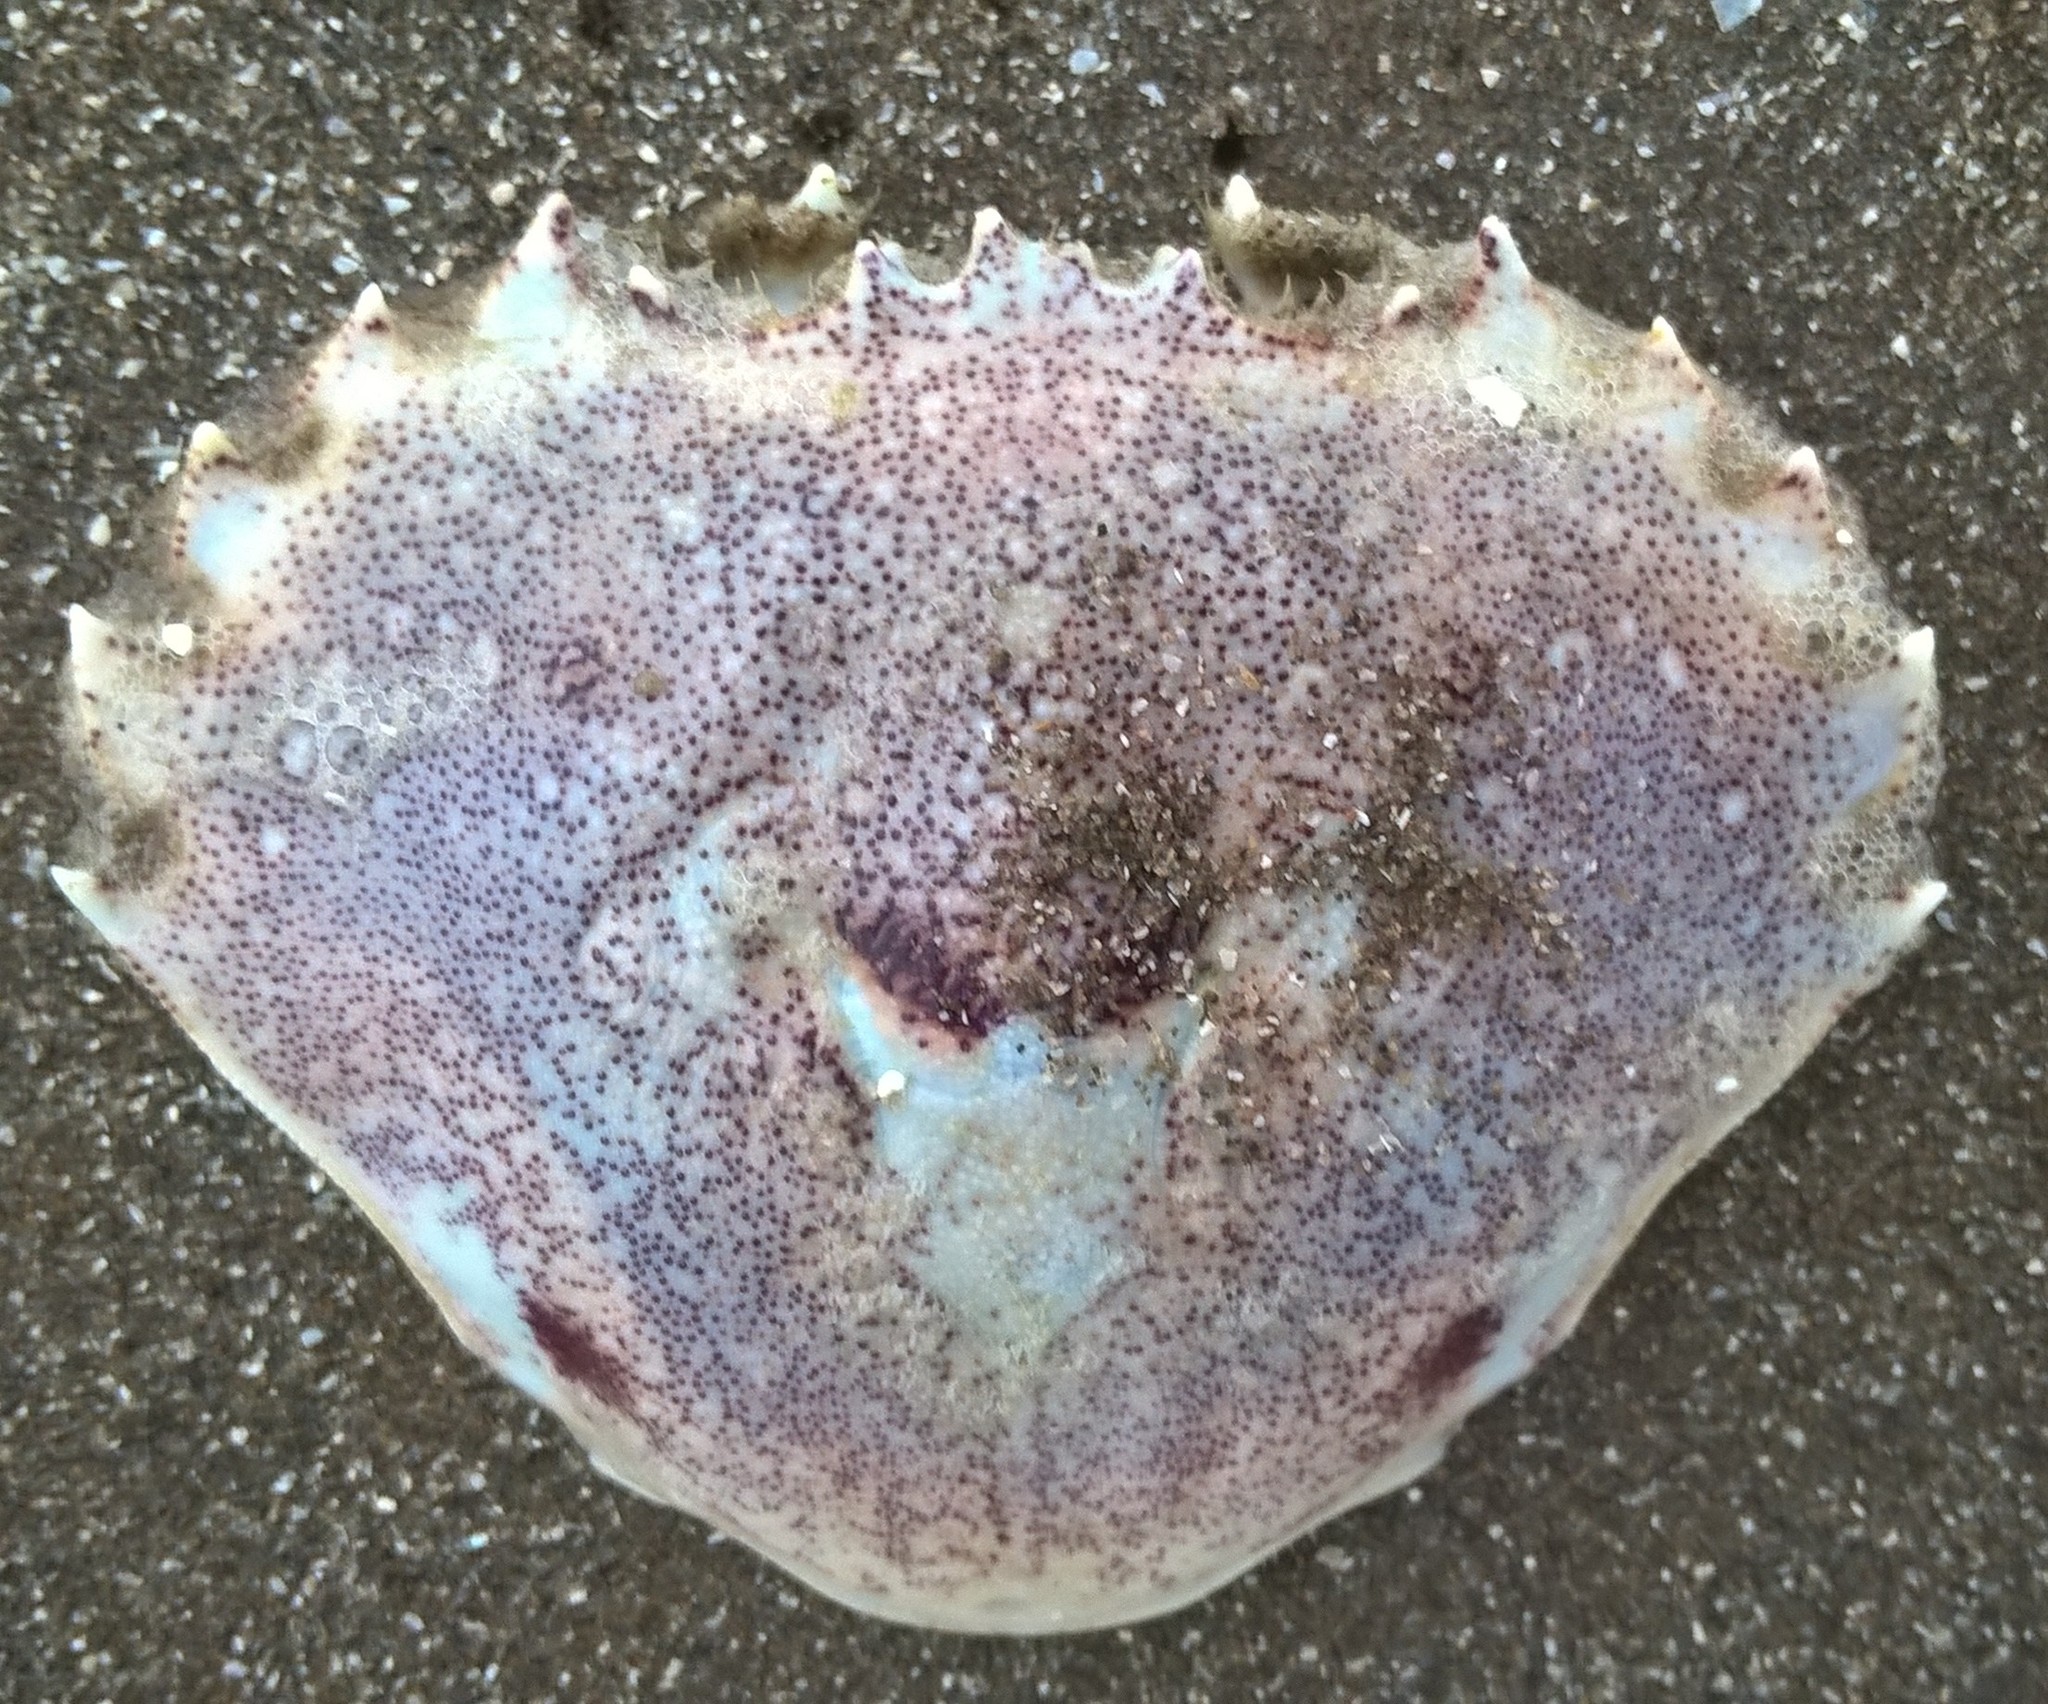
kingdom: Animalia
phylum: Arthropoda
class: Malacostraca
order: Decapoda
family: Ovalipidae
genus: Ovalipes
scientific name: Ovalipes trimaculatus
